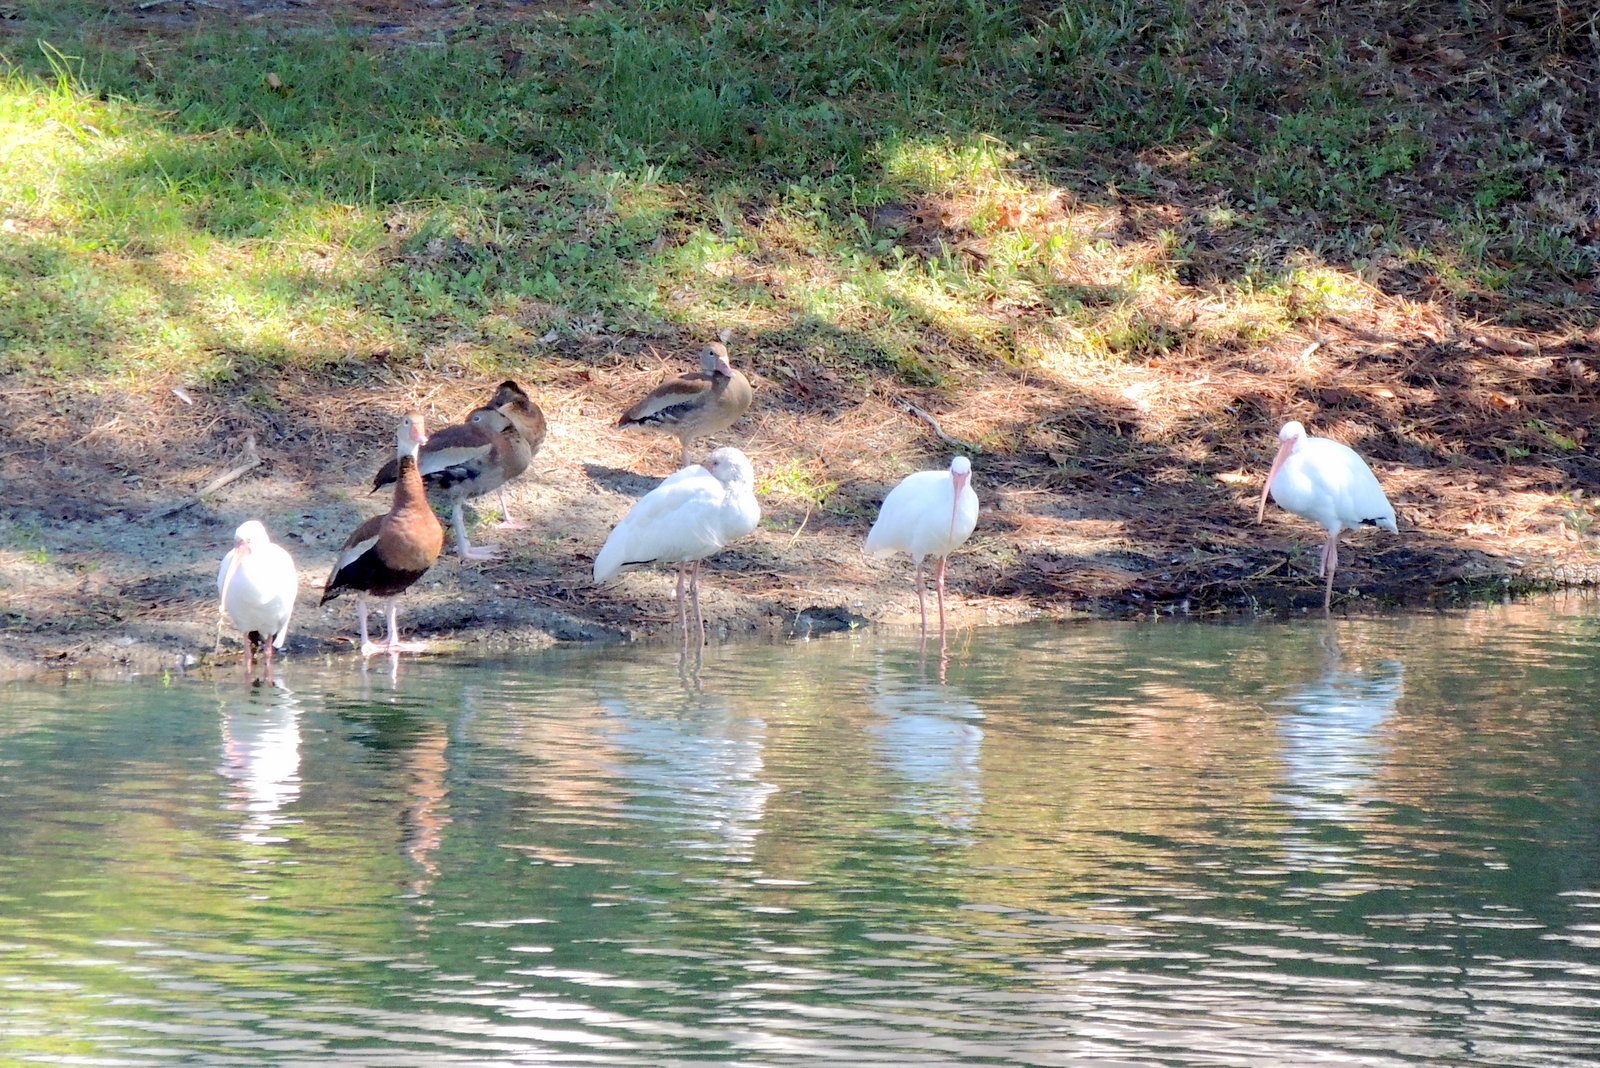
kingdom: Animalia
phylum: Chordata
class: Aves
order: Pelecaniformes
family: Threskiornithidae
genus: Eudocimus
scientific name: Eudocimus albus
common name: White ibis
